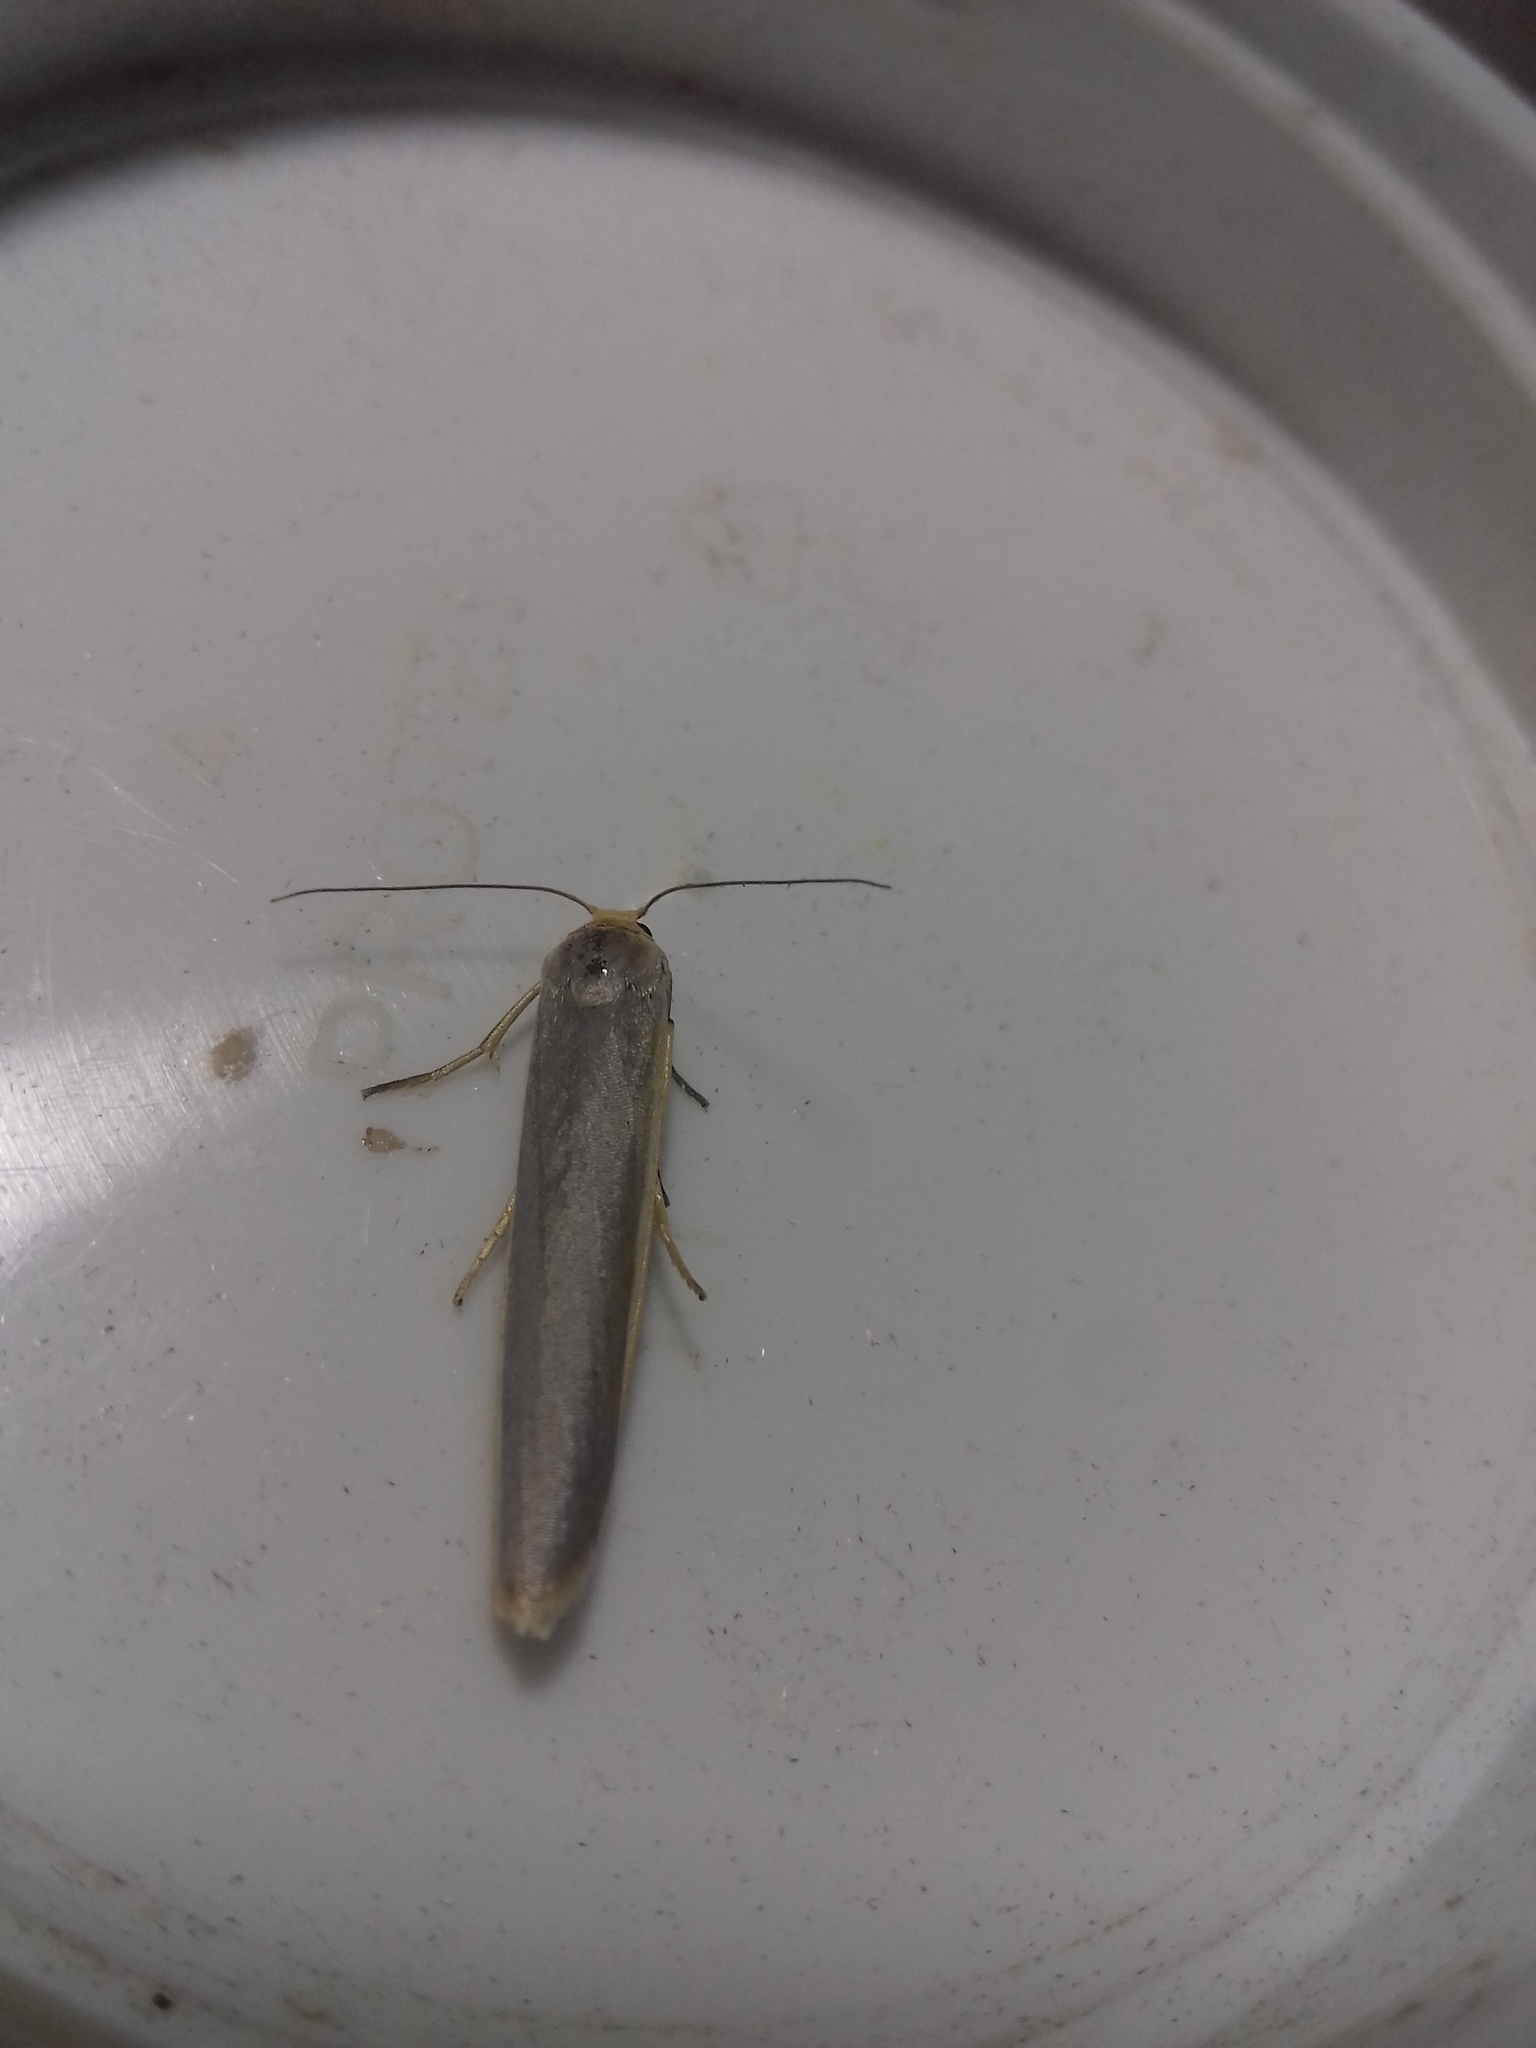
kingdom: Animalia
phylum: Arthropoda
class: Insecta
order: Lepidoptera
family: Erebidae
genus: Manulea
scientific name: Manulea complana
